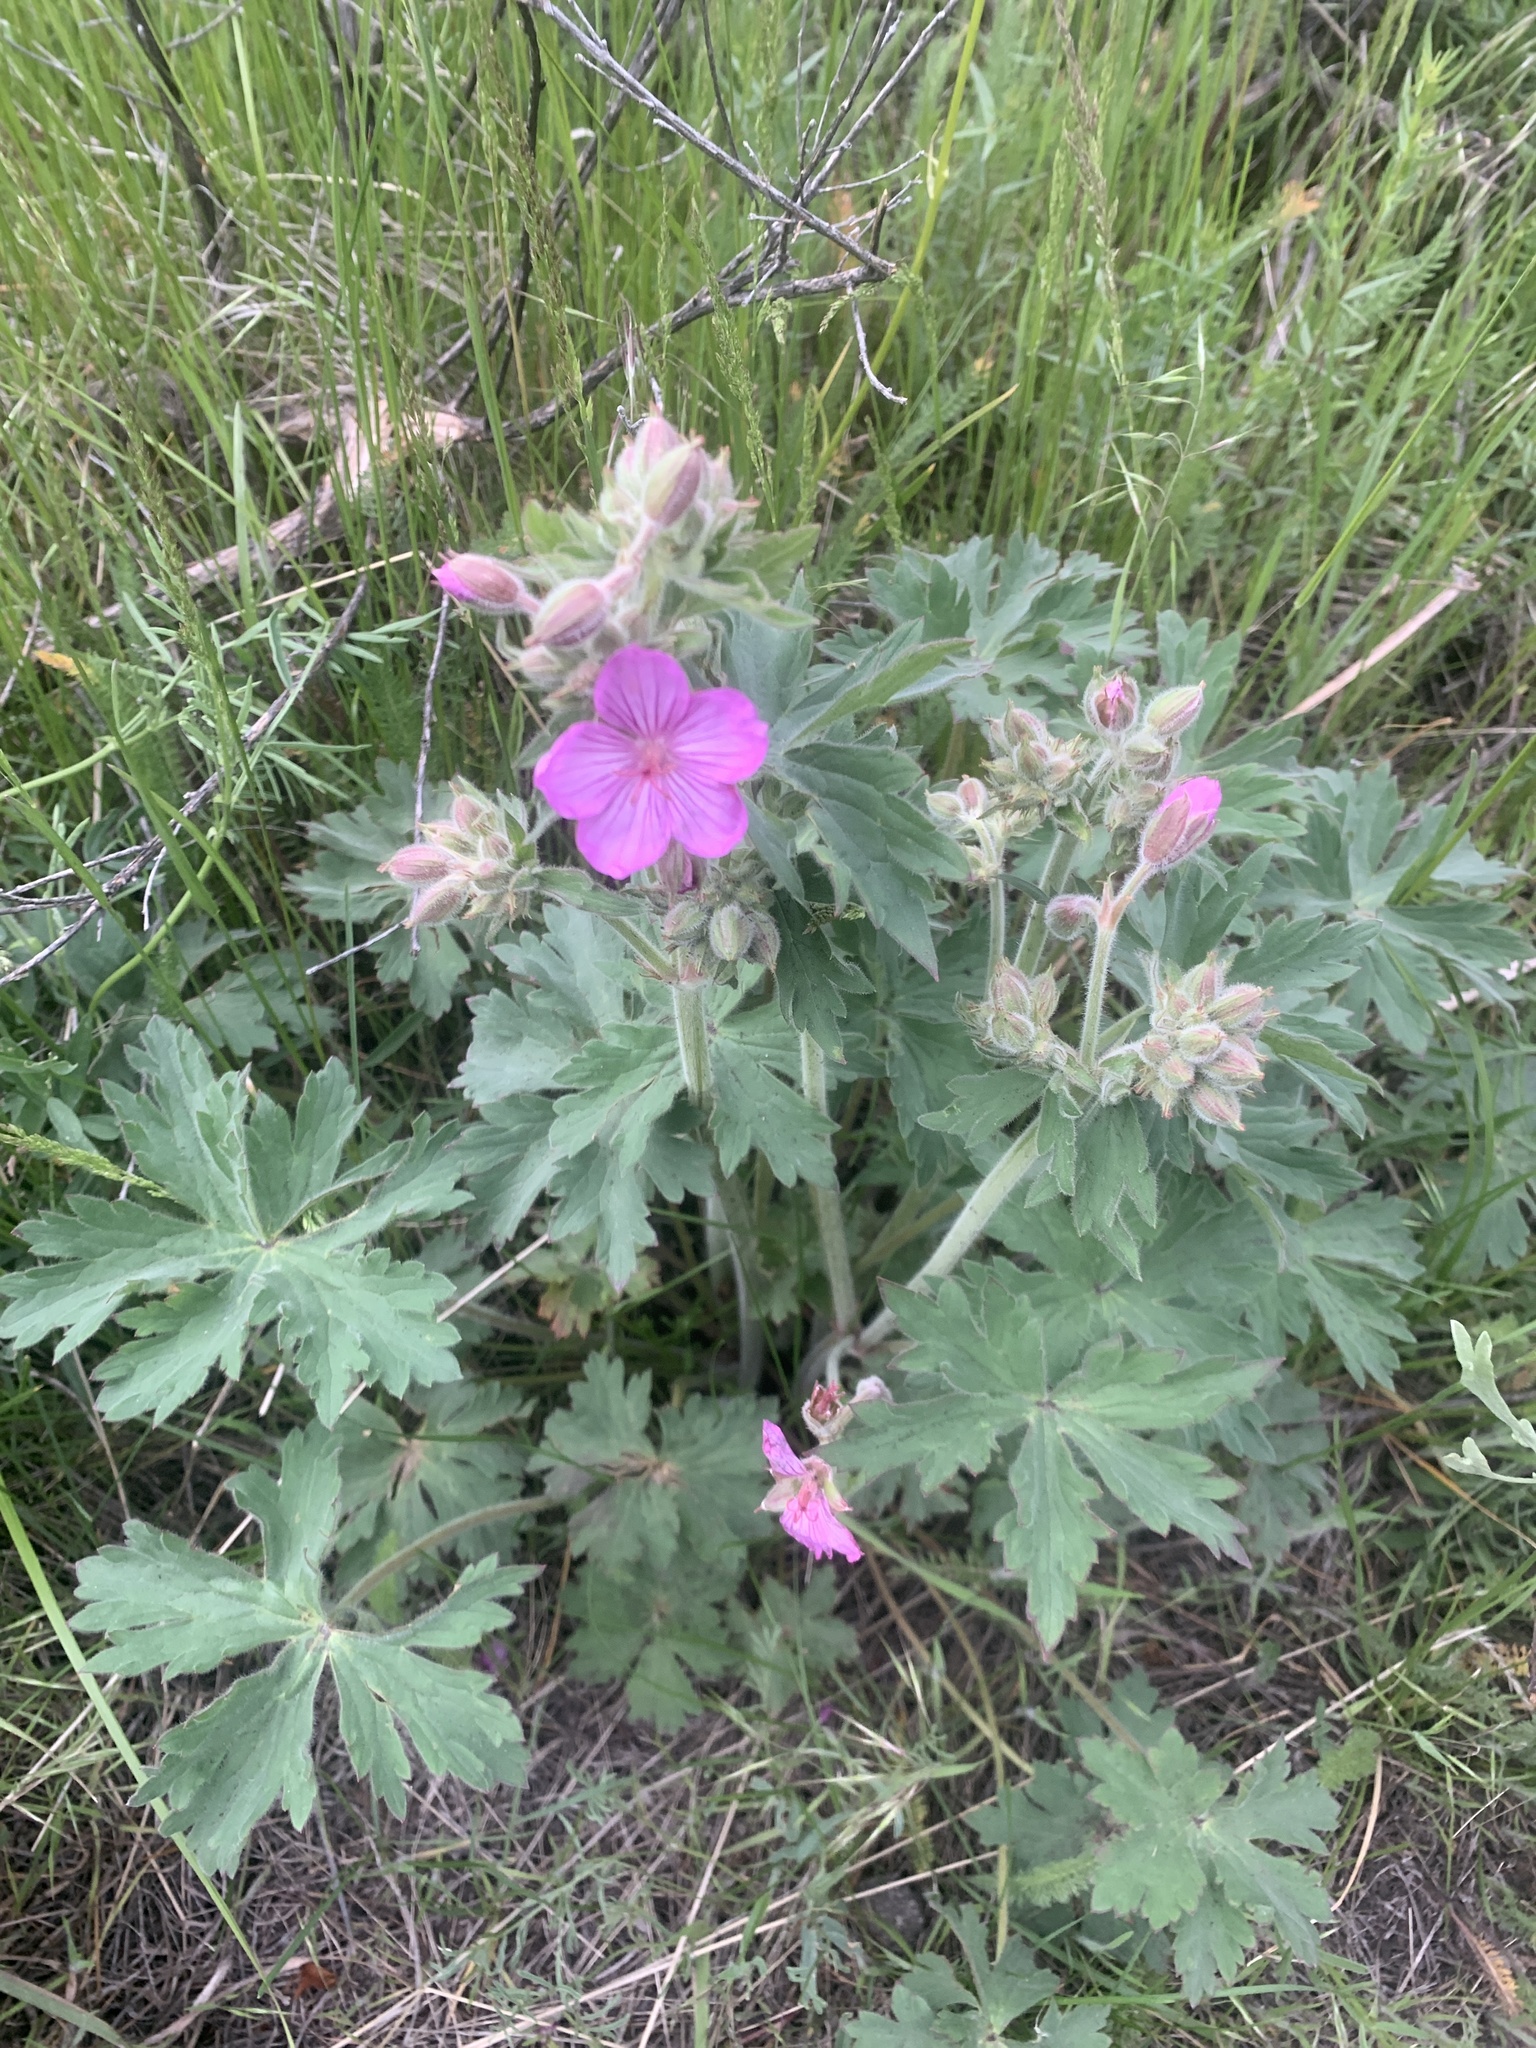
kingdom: Plantae
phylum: Tracheophyta
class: Magnoliopsida
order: Geraniales
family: Geraniaceae
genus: Geranium
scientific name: Geranium viscosissimum
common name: Purple geranium
